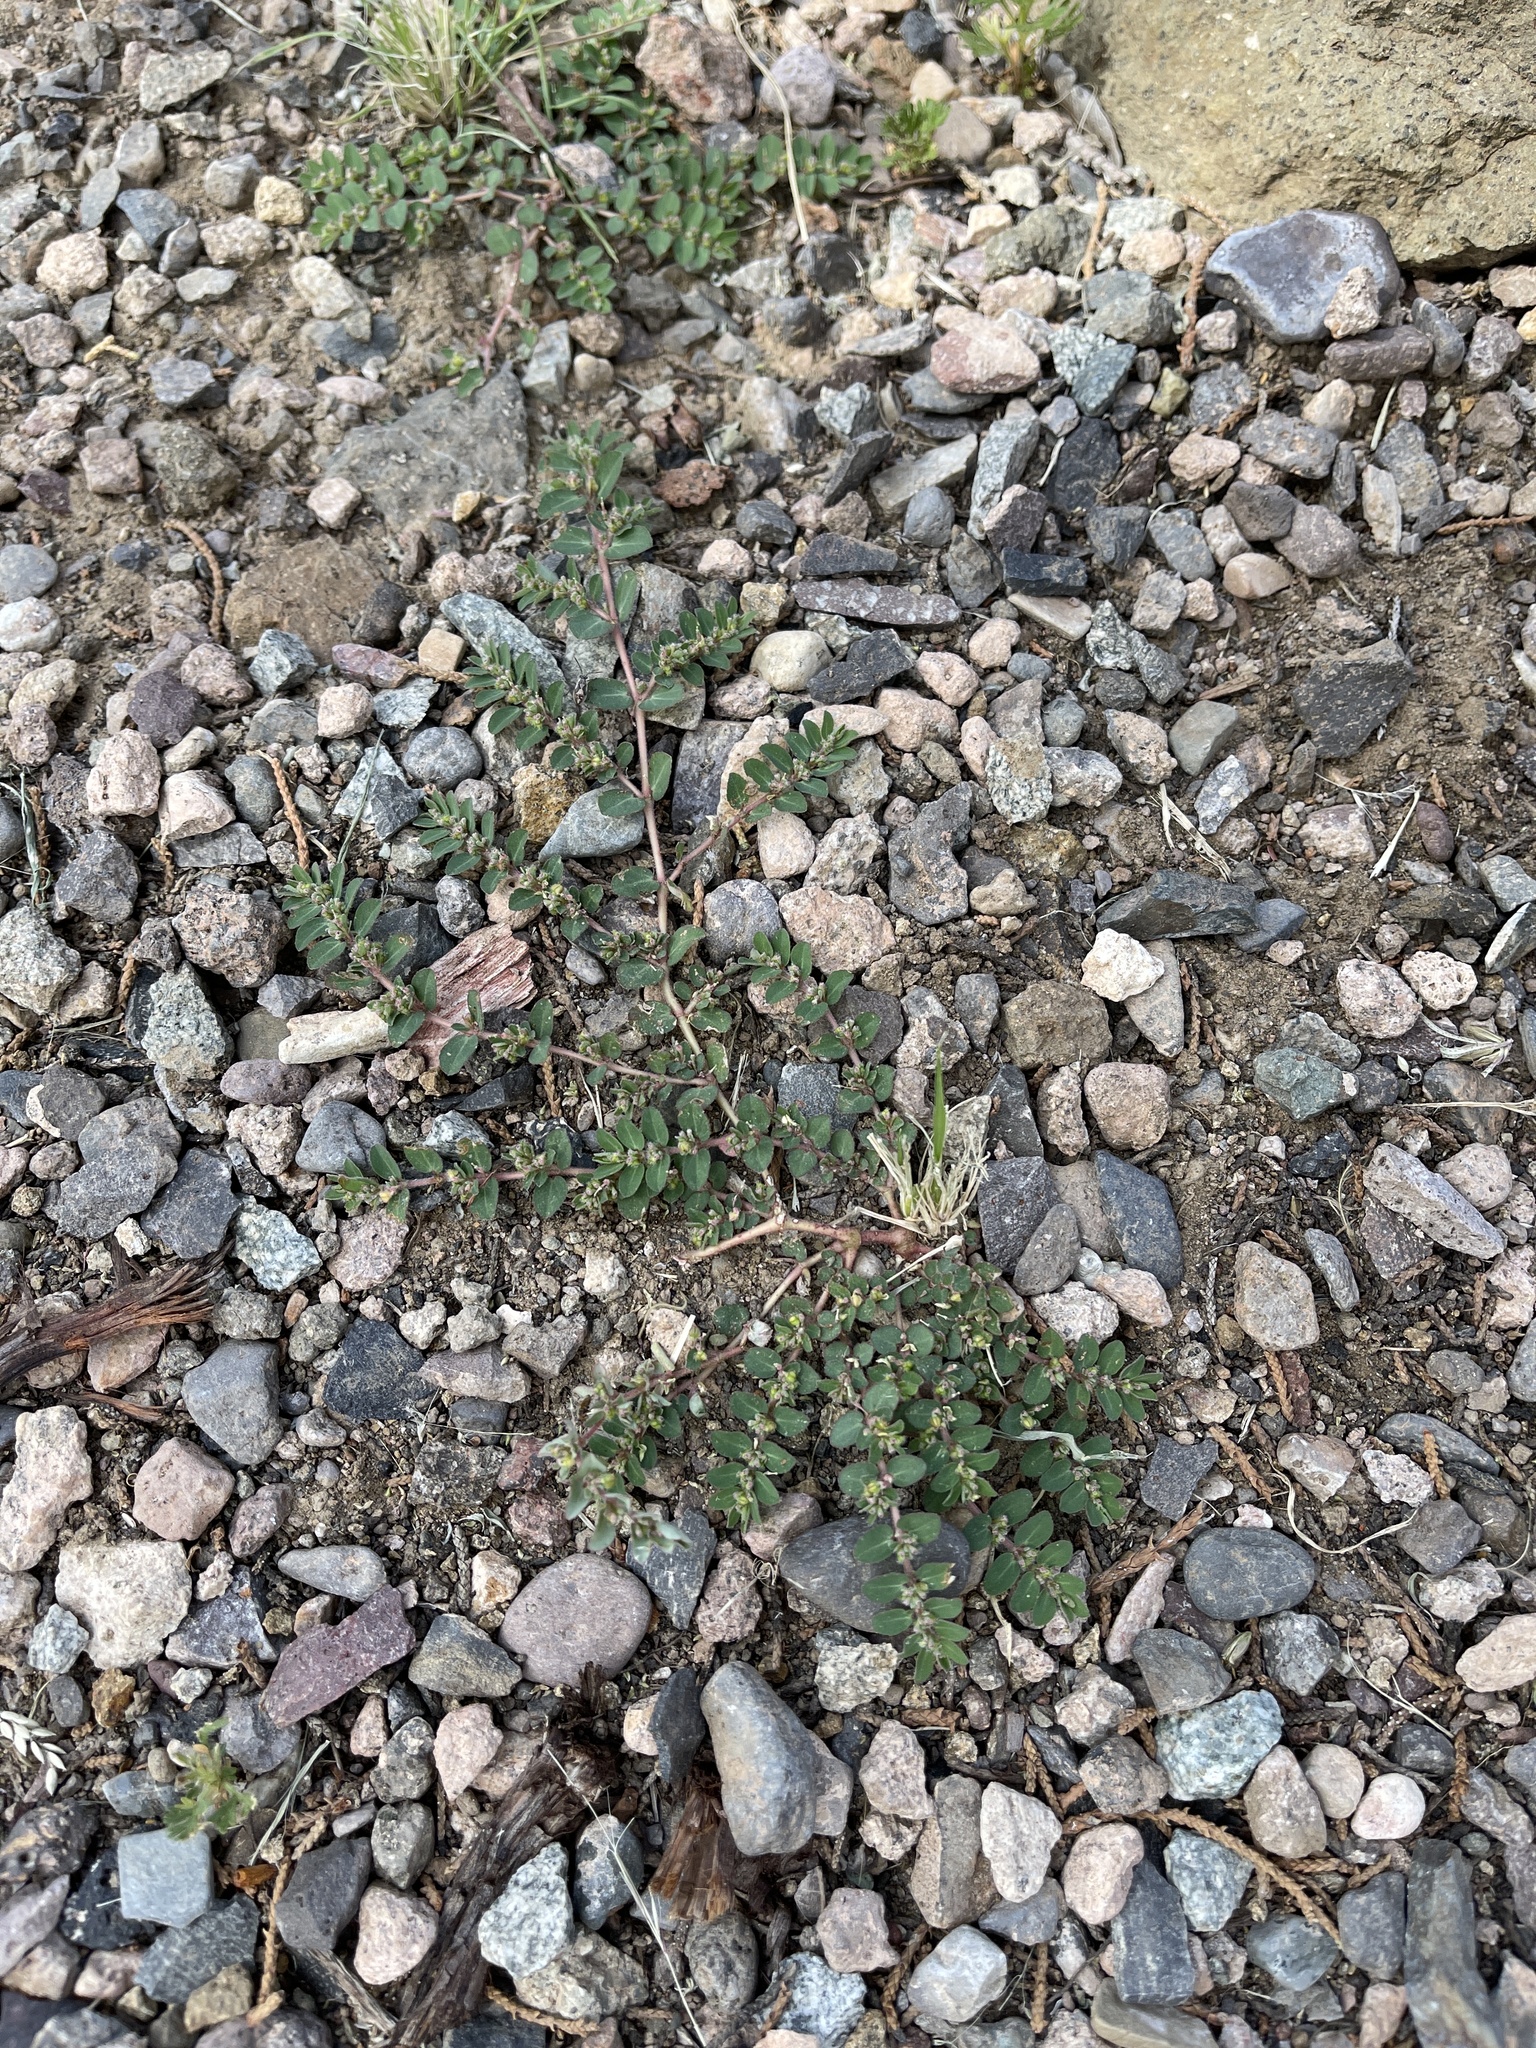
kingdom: Plantae
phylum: Tracheophyta
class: Magnoliopsida
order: Malpighiales
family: Euphorbiaceae
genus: Euphorbia
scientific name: Euphorbia prostrata
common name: Prostrate sandmat
